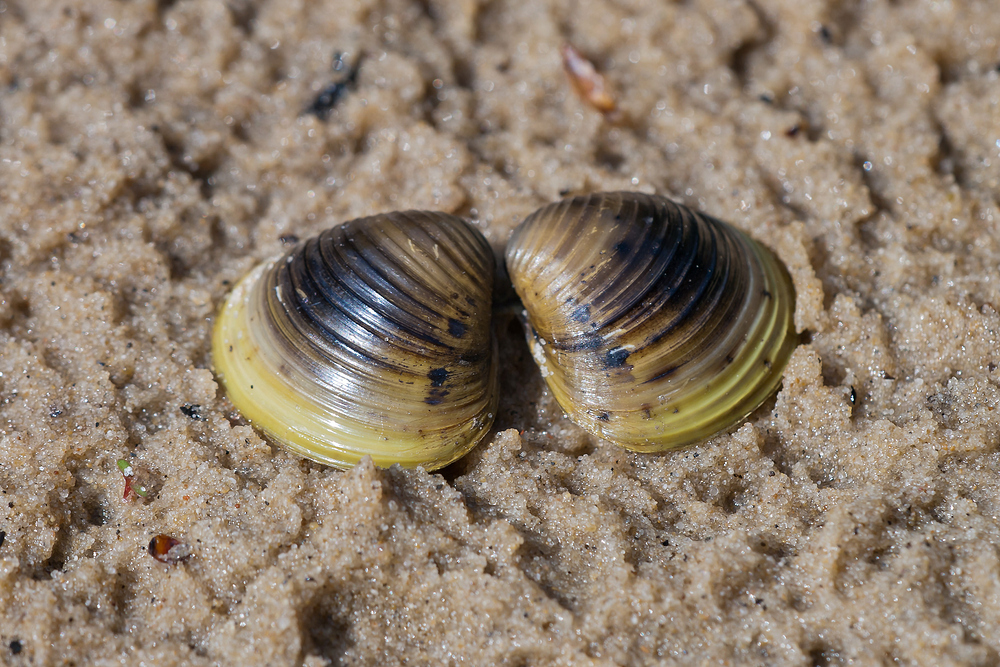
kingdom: Animalia
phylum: Mollusca
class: Bivalvia
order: Venerida
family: Cyrenidae
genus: Corbicula
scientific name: Corbicula fluminea
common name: Asian clam
